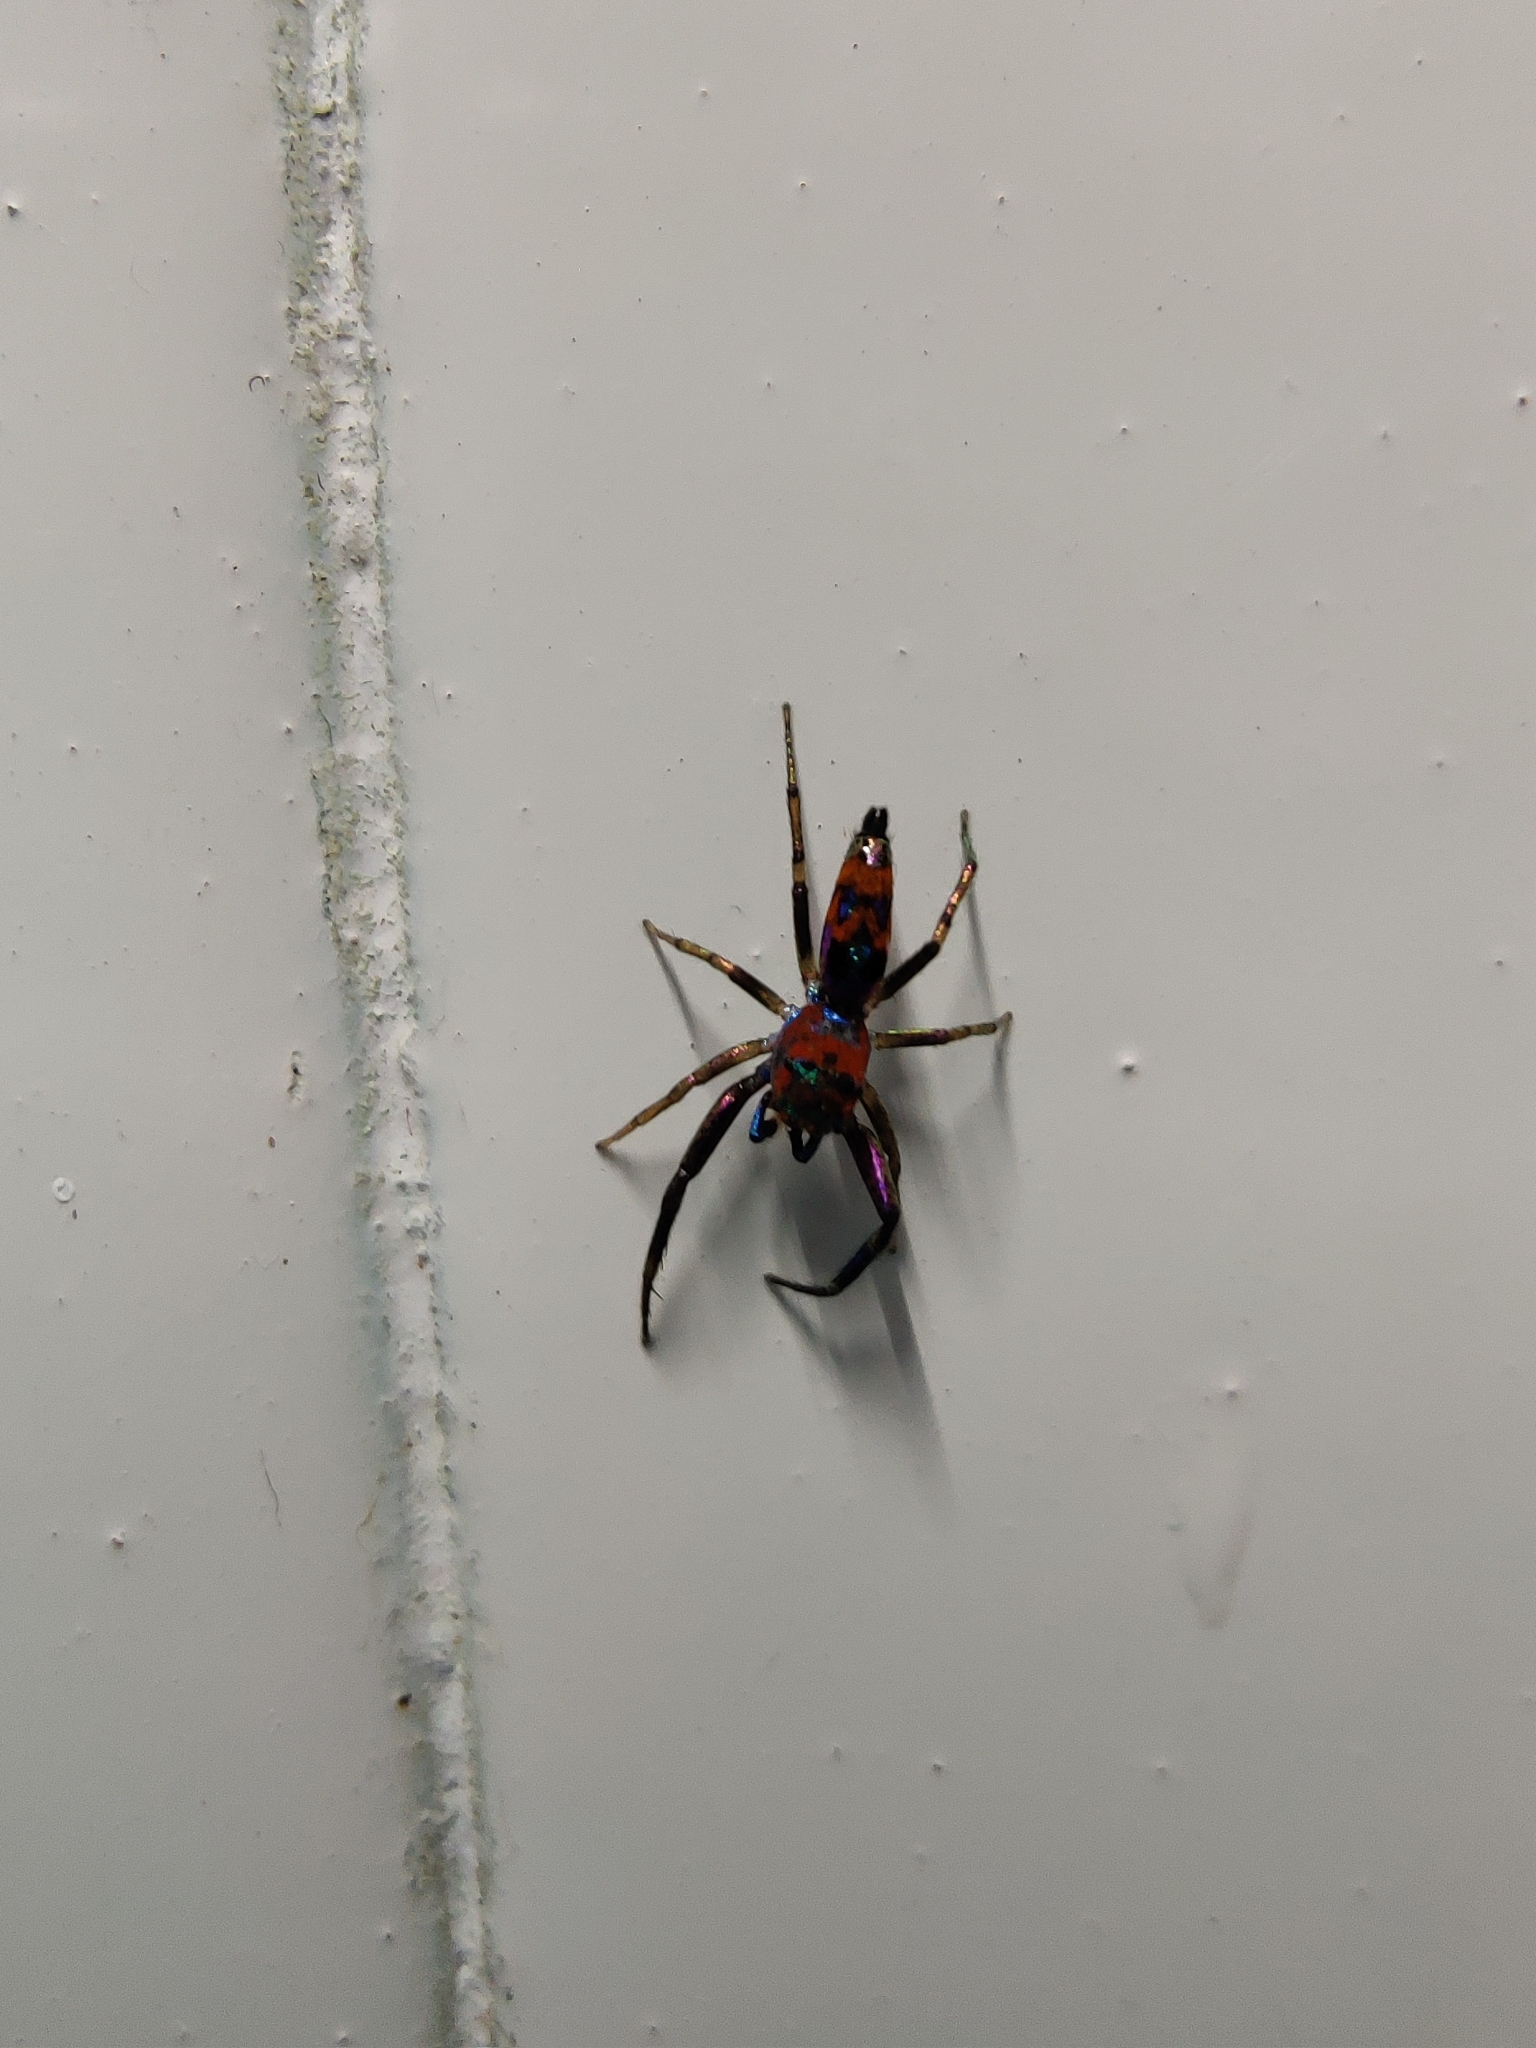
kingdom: Animalia
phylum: Arthropoda
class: Arachnida
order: Araneae
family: Salticidae
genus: Chrysilla
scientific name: Chrysilla volupe
